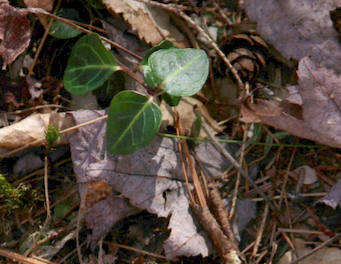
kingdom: Plantae
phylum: Tracheophyta
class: Magnoliopsida
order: Gentianales
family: Rubiaceae
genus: Mitchella
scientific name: Mitchella repens
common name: Partridge-berry
